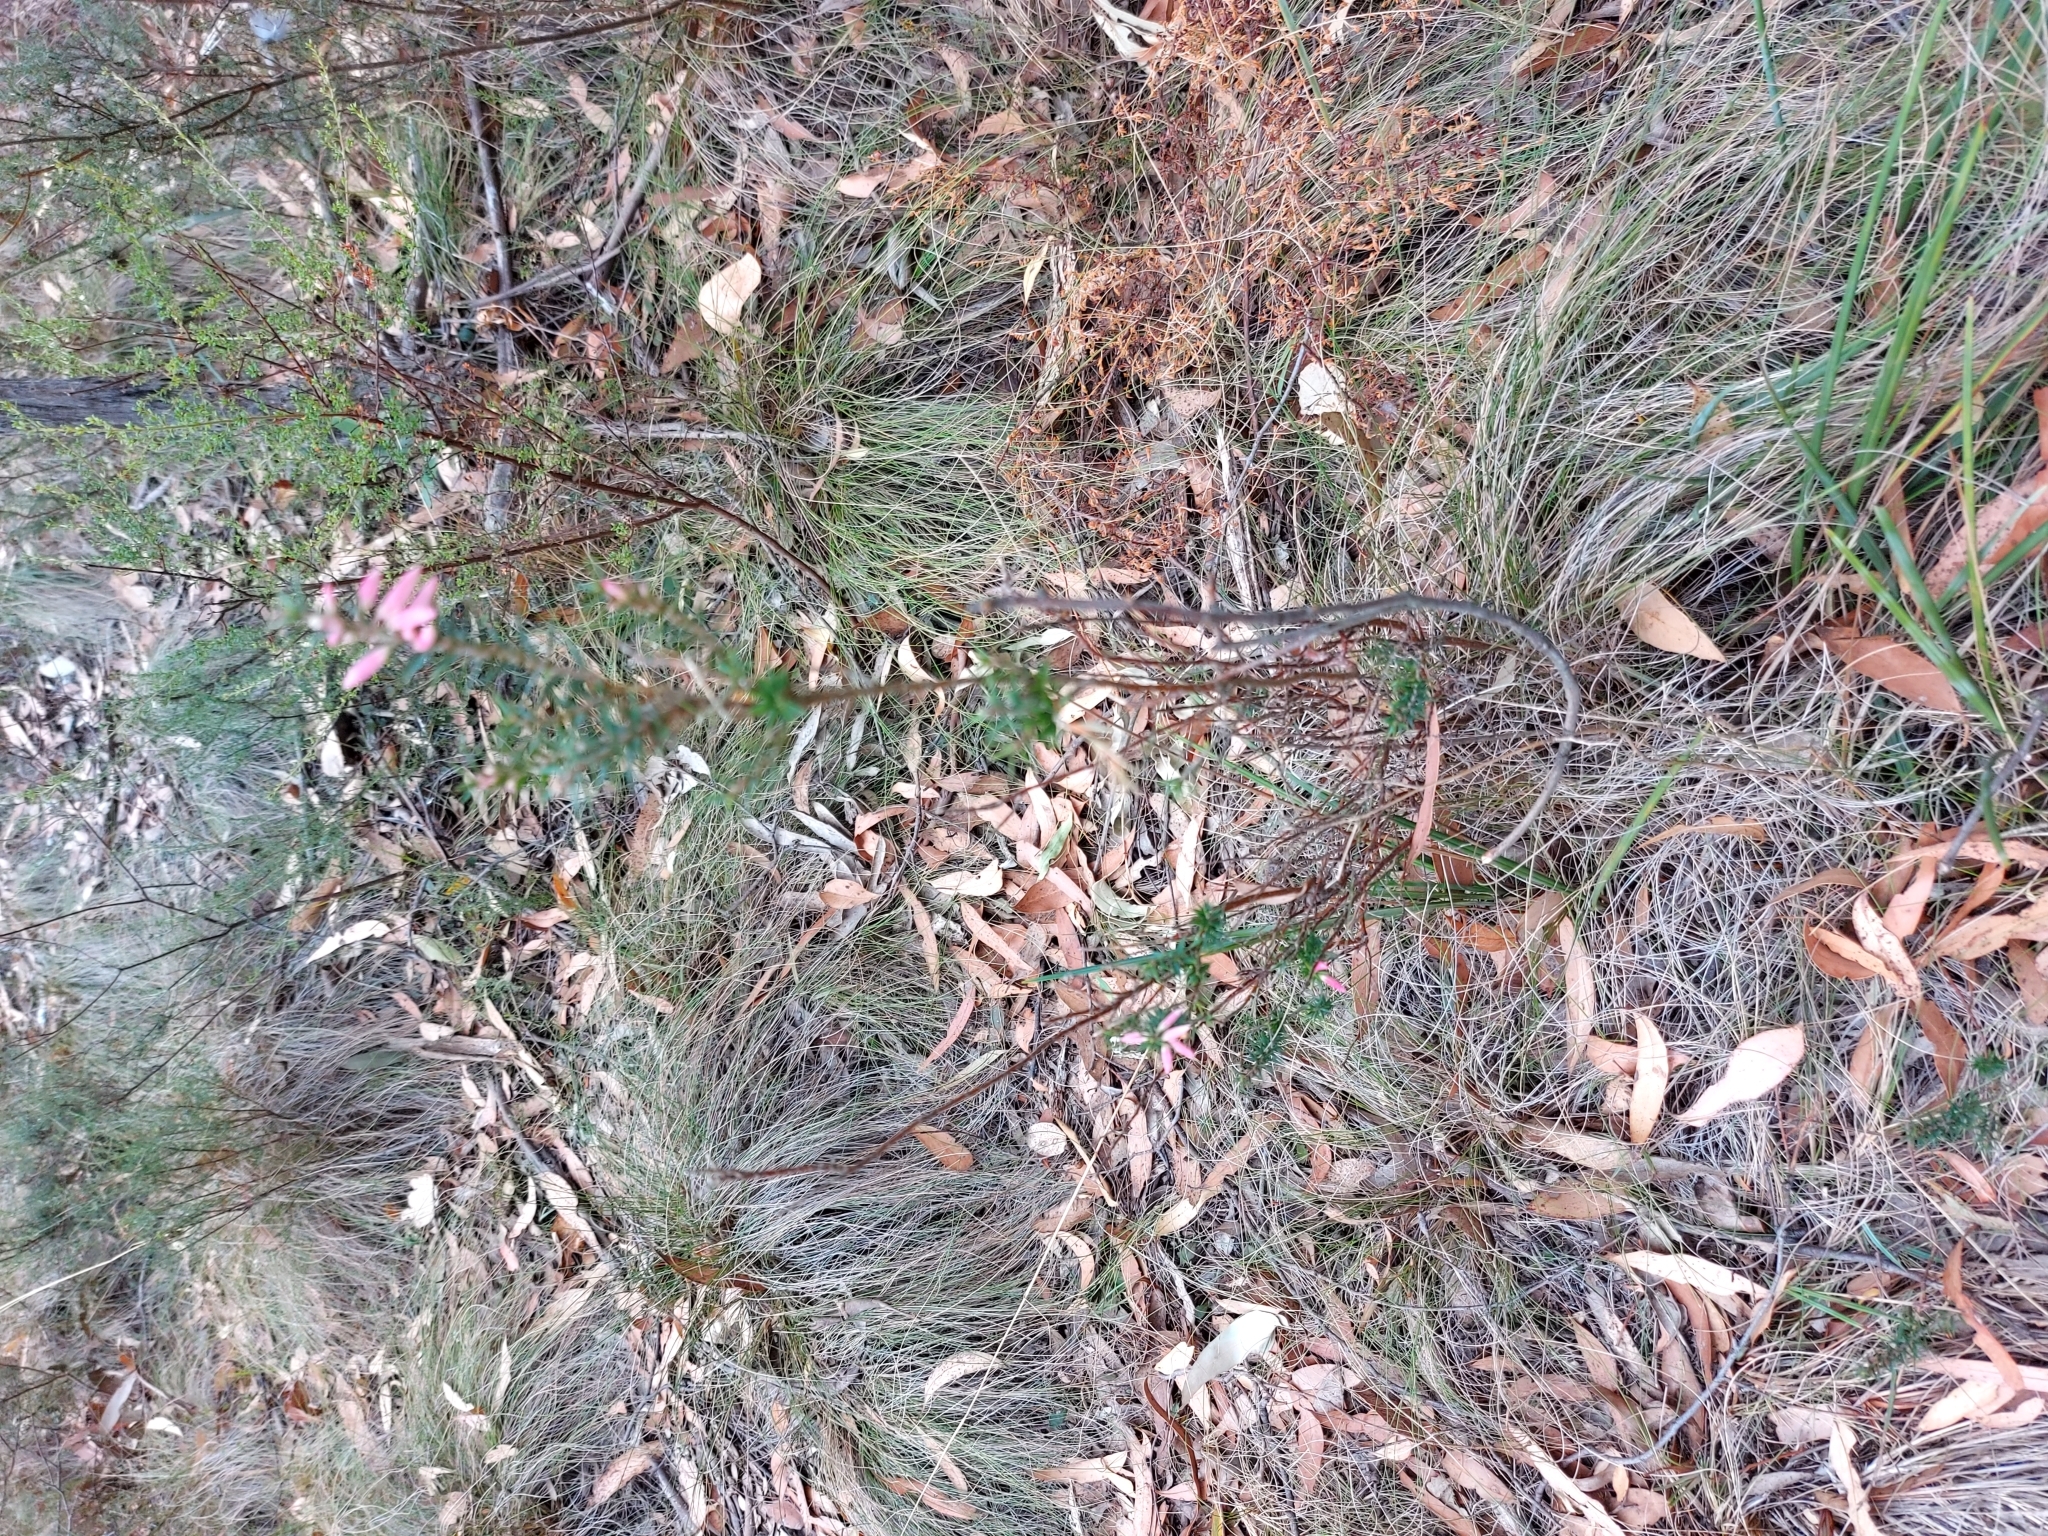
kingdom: Plantae
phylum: Tracheophyta
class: Magnoliopsida
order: Ericales
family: Ericaceae
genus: Epacris
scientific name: Epacris impressa
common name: Common-heath
